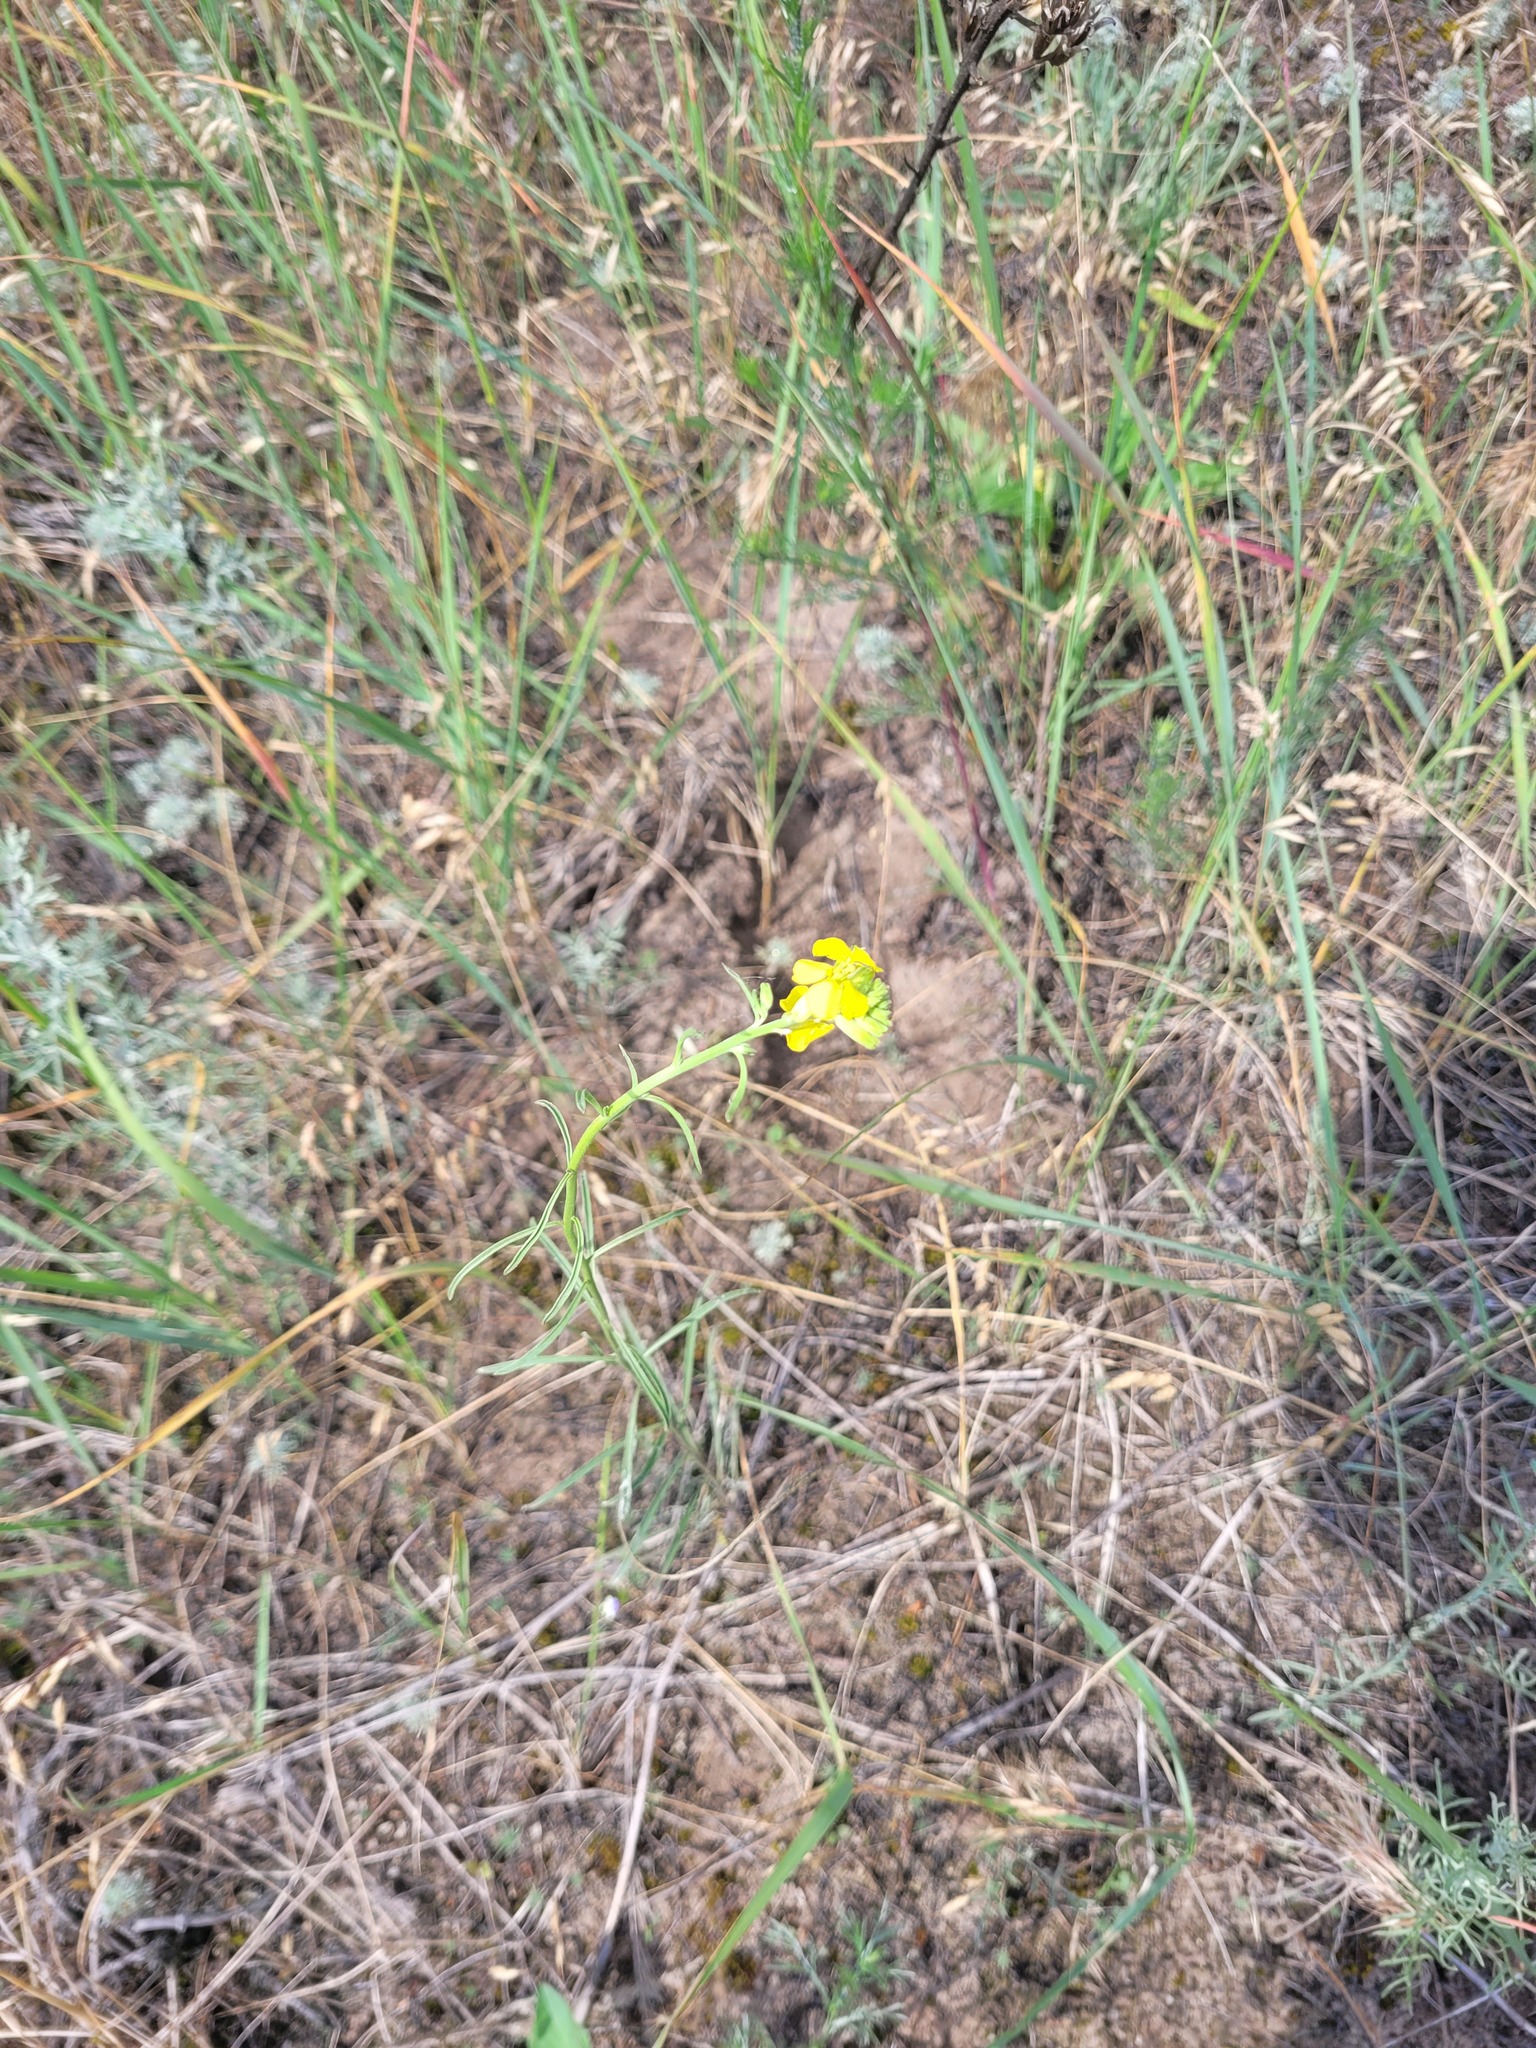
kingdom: Plantae
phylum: Tracheophyta
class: Magnoliopsida
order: Brassicales
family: Brassicaceae
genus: Erysimum
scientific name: Erysimum quadrangulum
